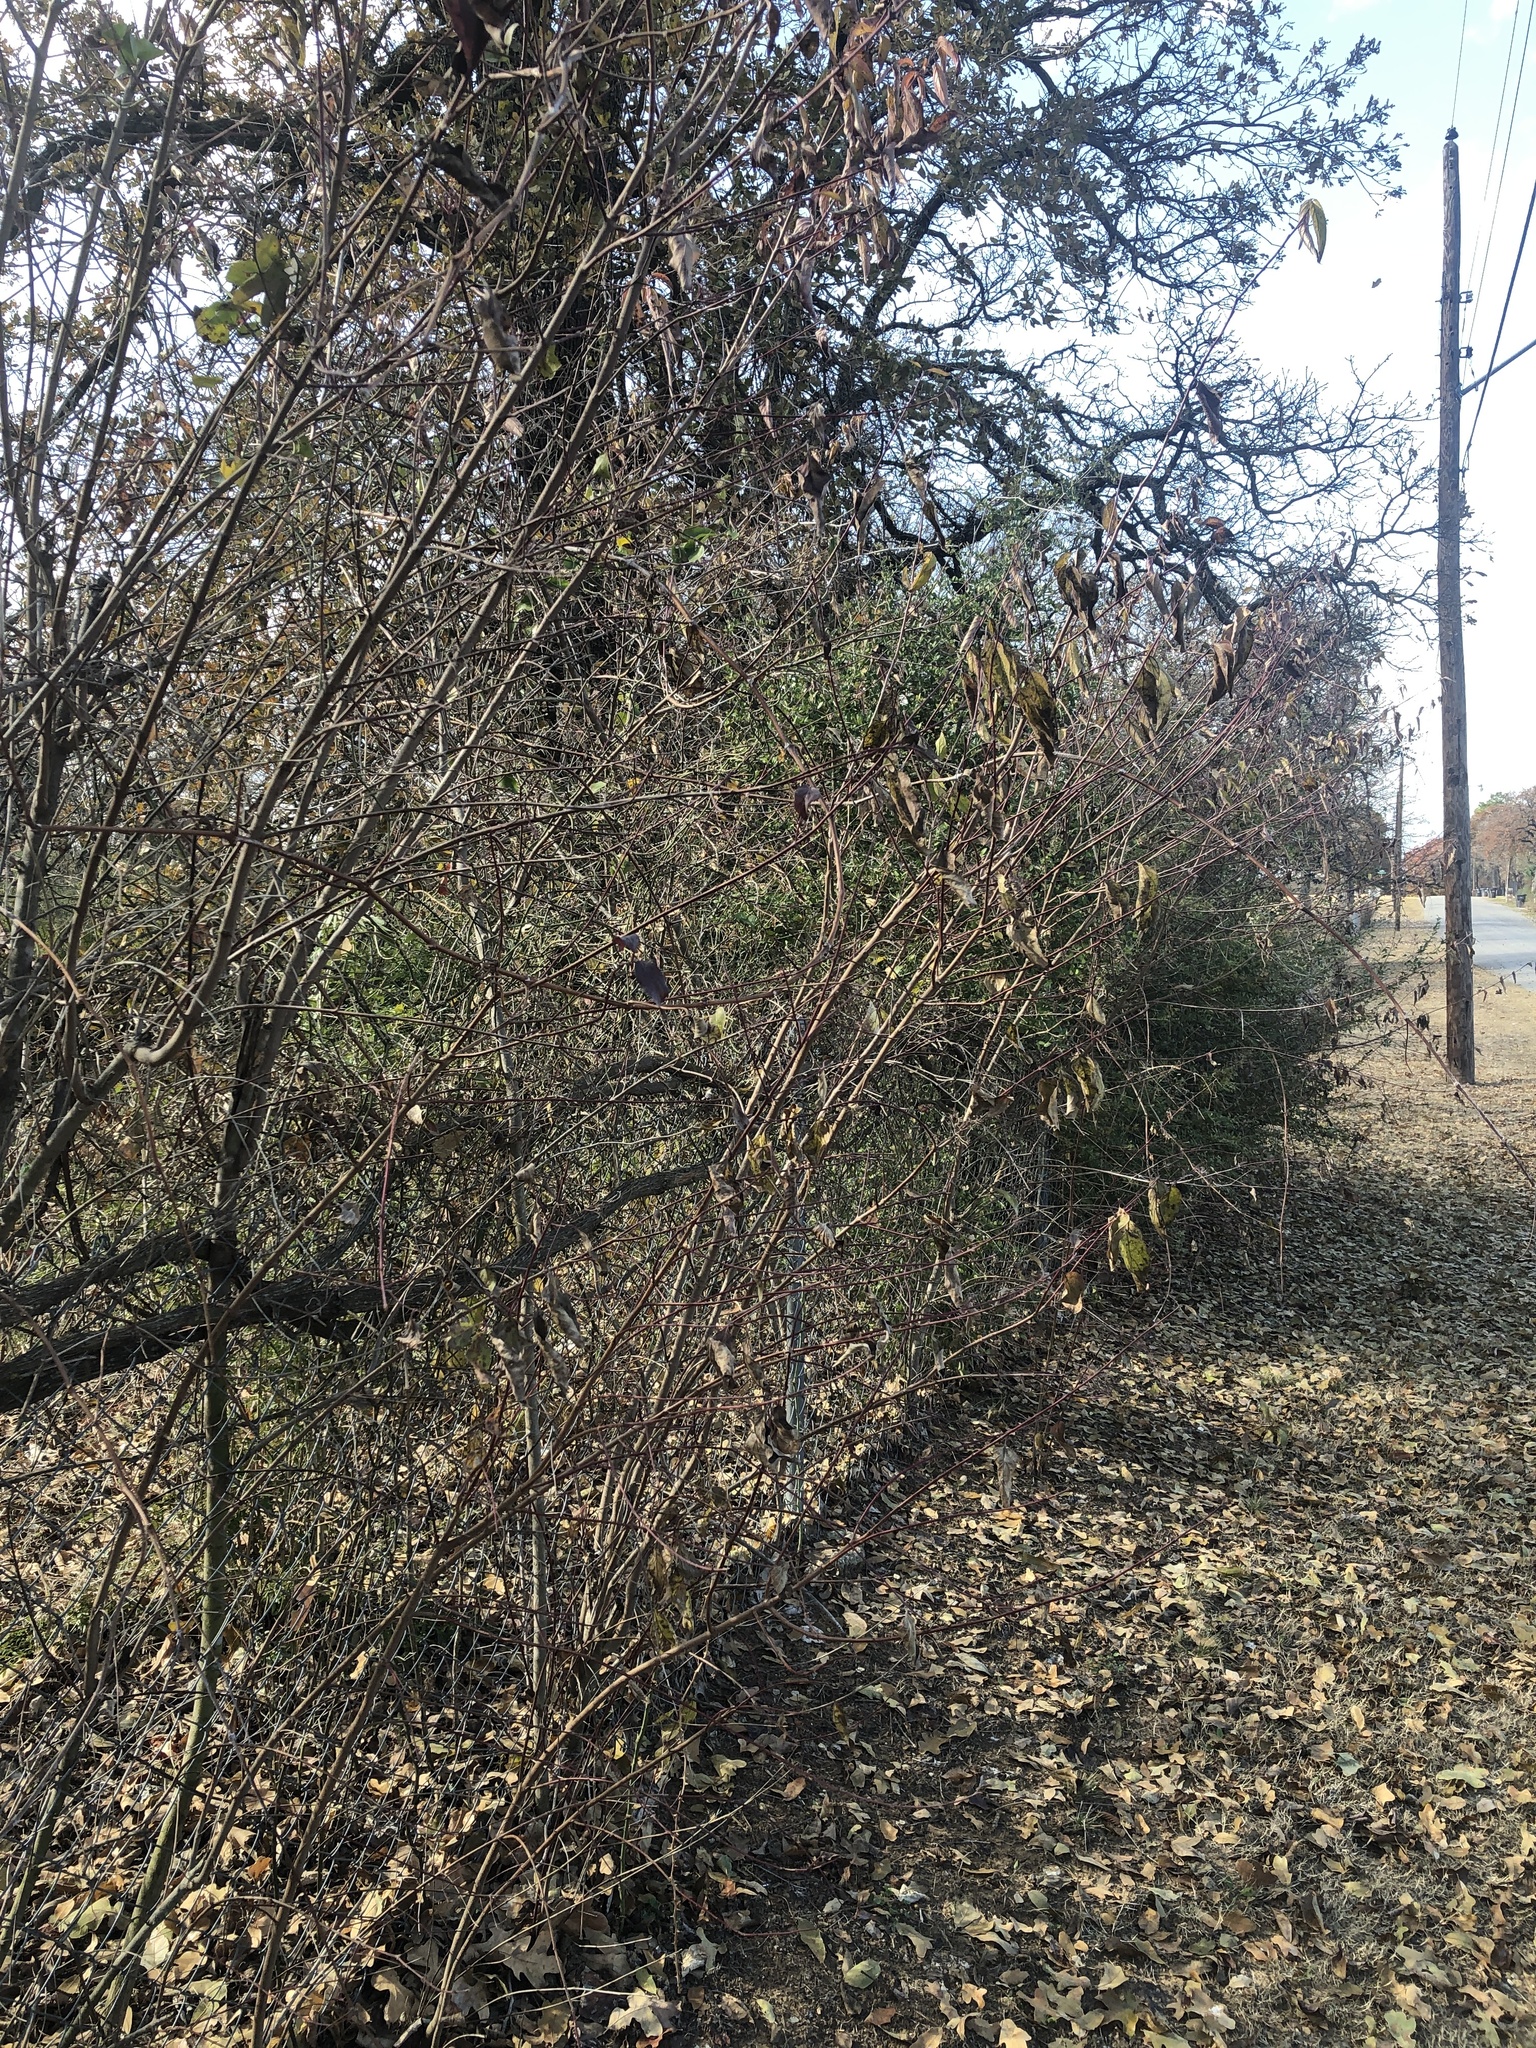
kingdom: Plantae
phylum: Tracheophyta
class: Magnoliopsida
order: Cornales
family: Cornaceae
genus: Cornus
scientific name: Cornus drummondii
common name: Rough-leaf dogwood
